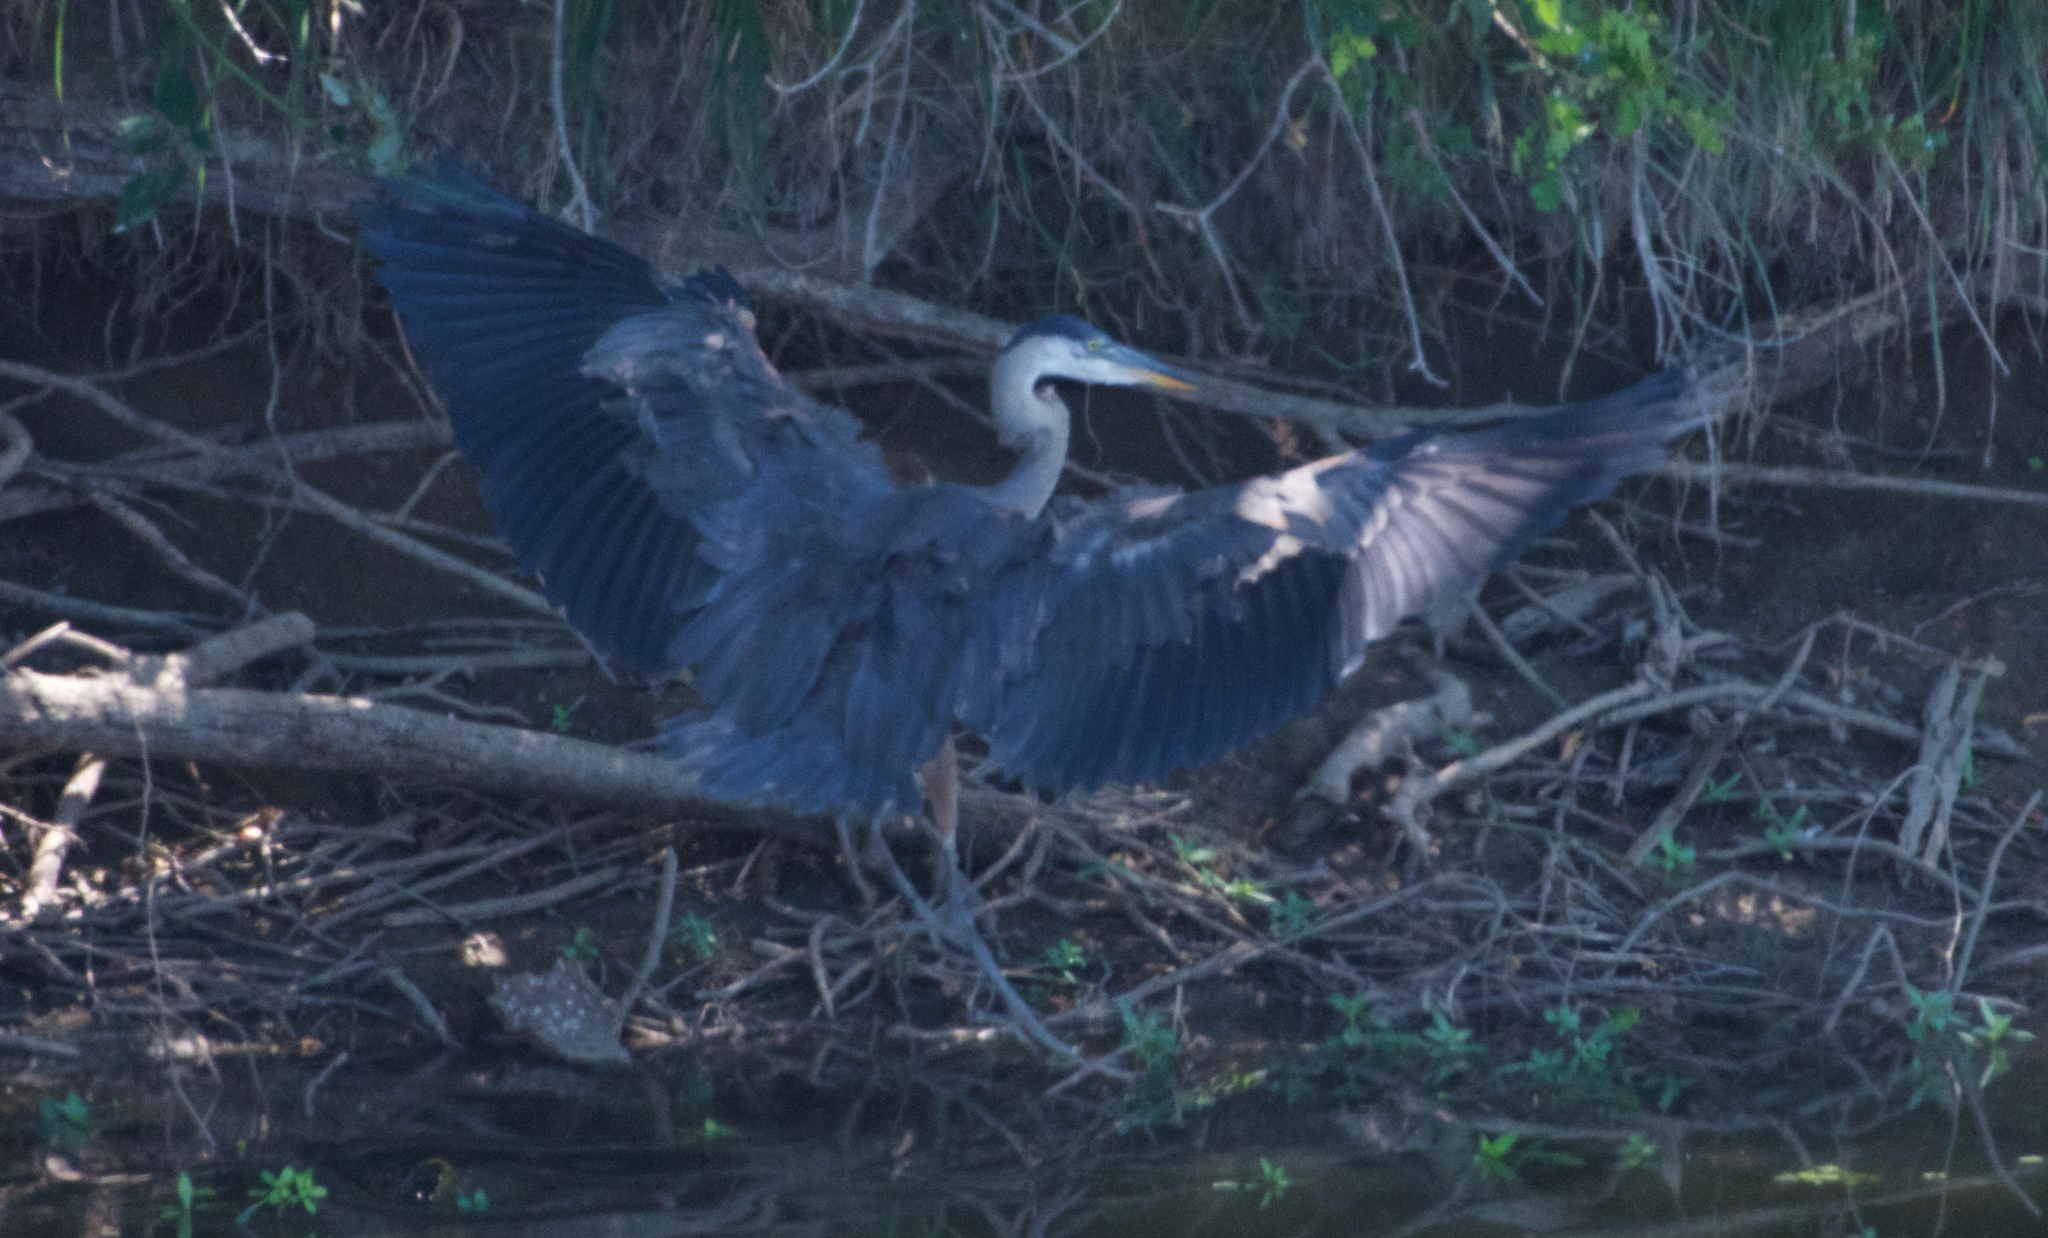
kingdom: Animalia
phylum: Chordata
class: Aves
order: Pelecaniformes
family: Ardeidae
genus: Ardea
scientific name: Ardea herodias
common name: Great blue heron
